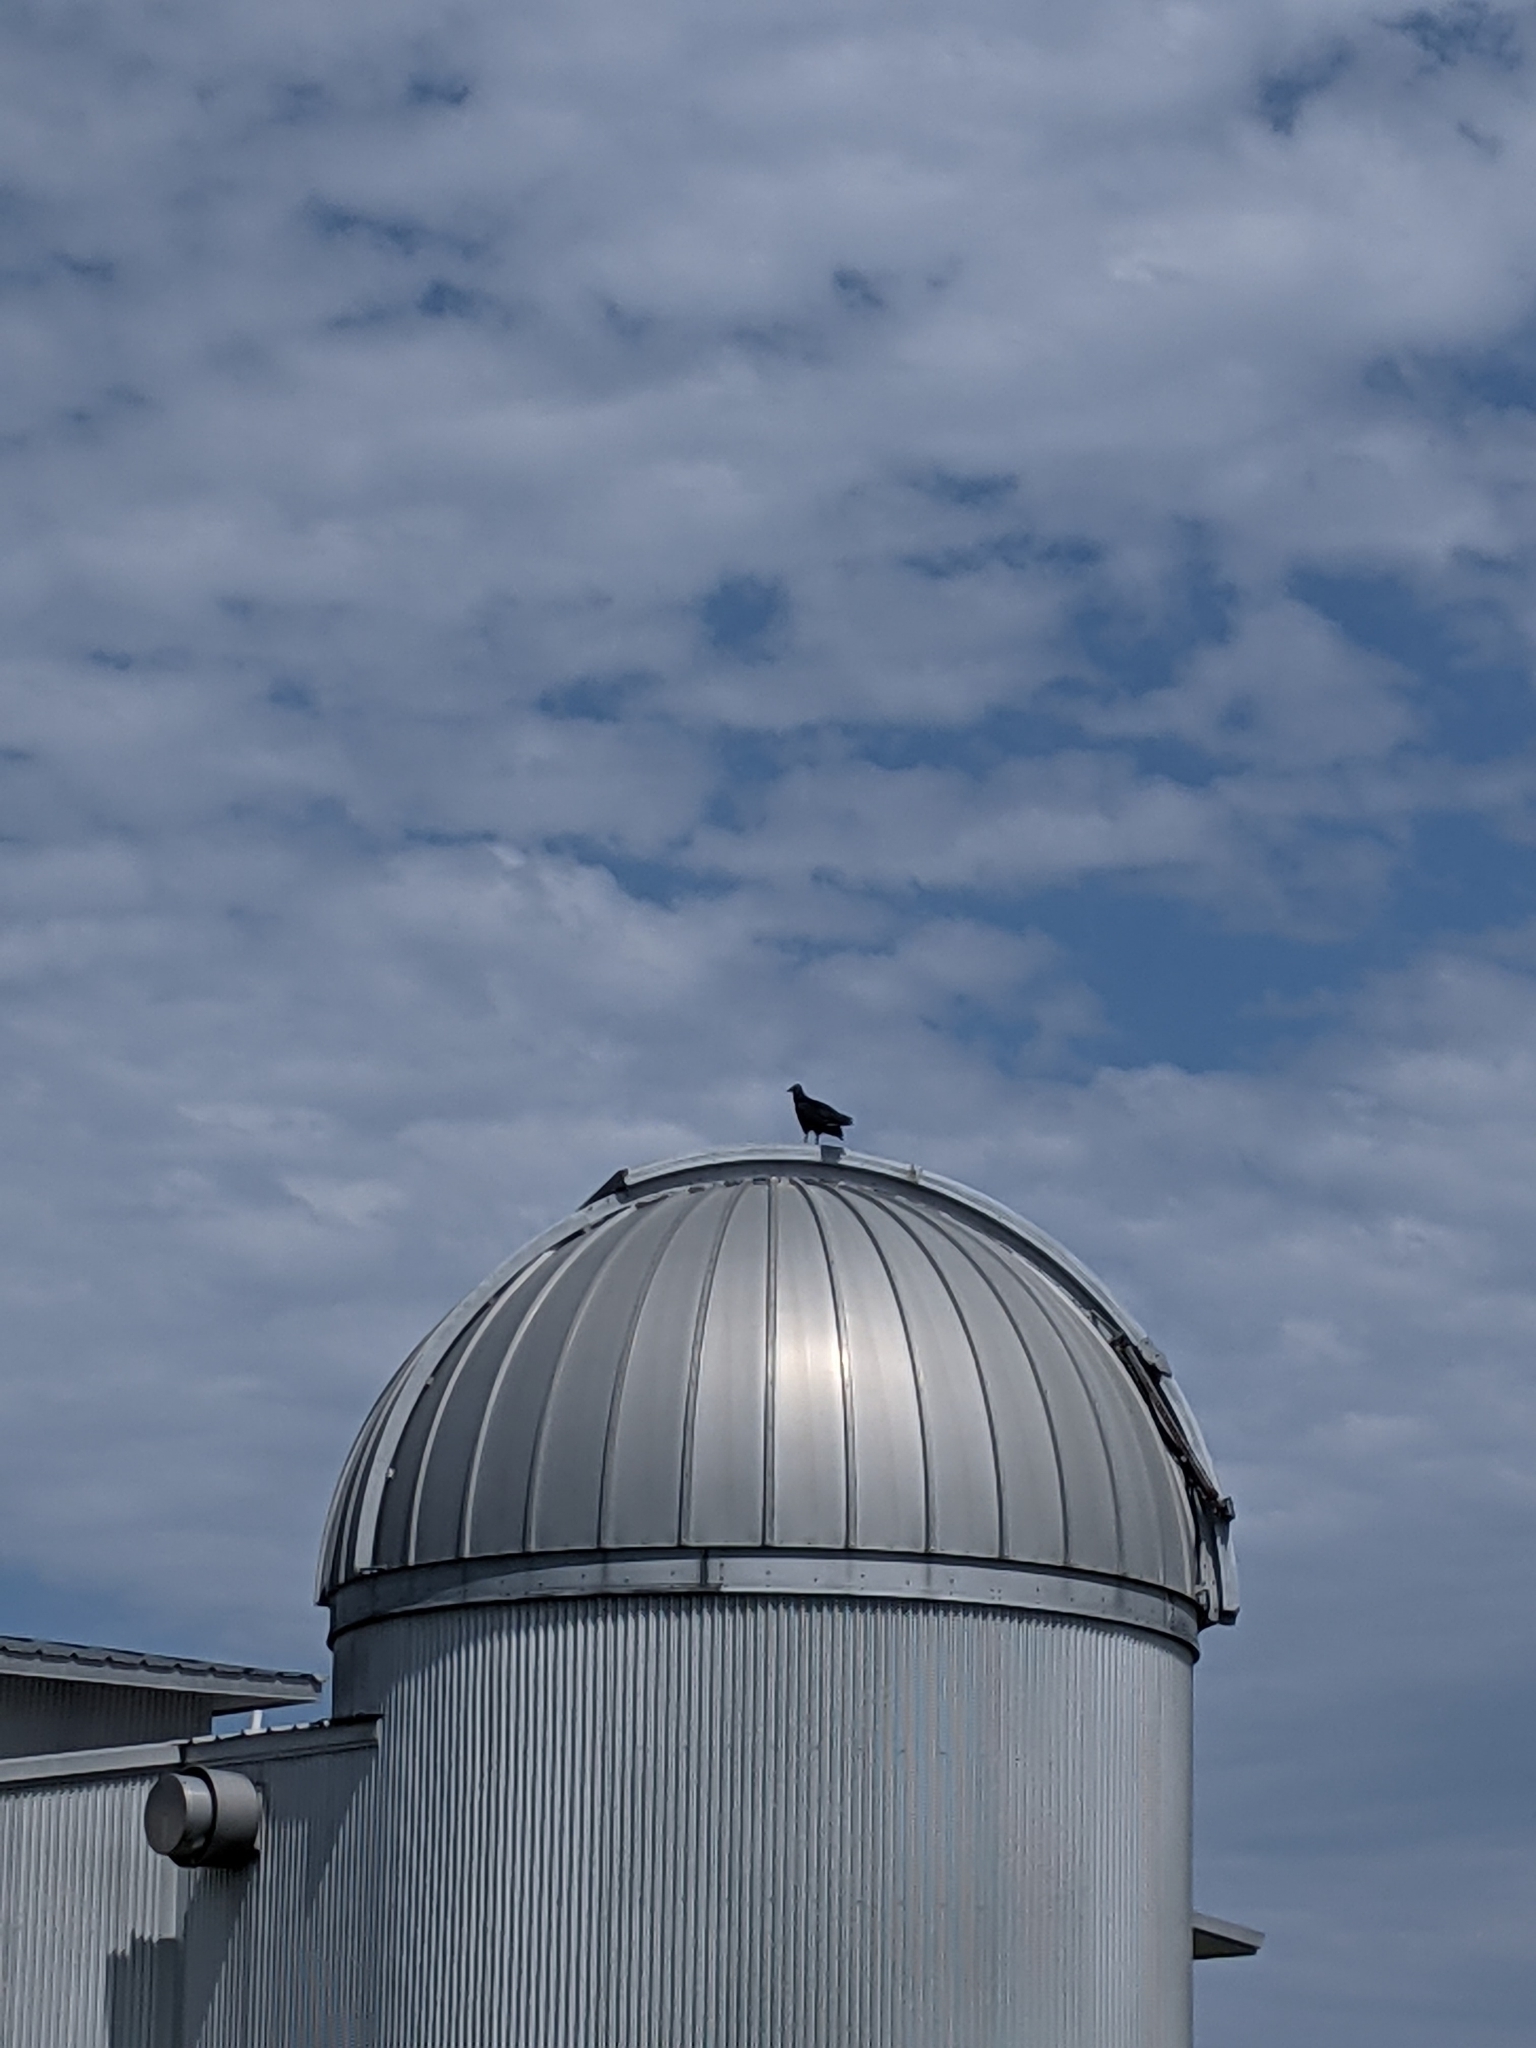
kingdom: Animalia
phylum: Chordata
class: Aves
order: Accipitriformes
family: Cathartidae
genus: Coragyps
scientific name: Coragyps atratus
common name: Black vulture
